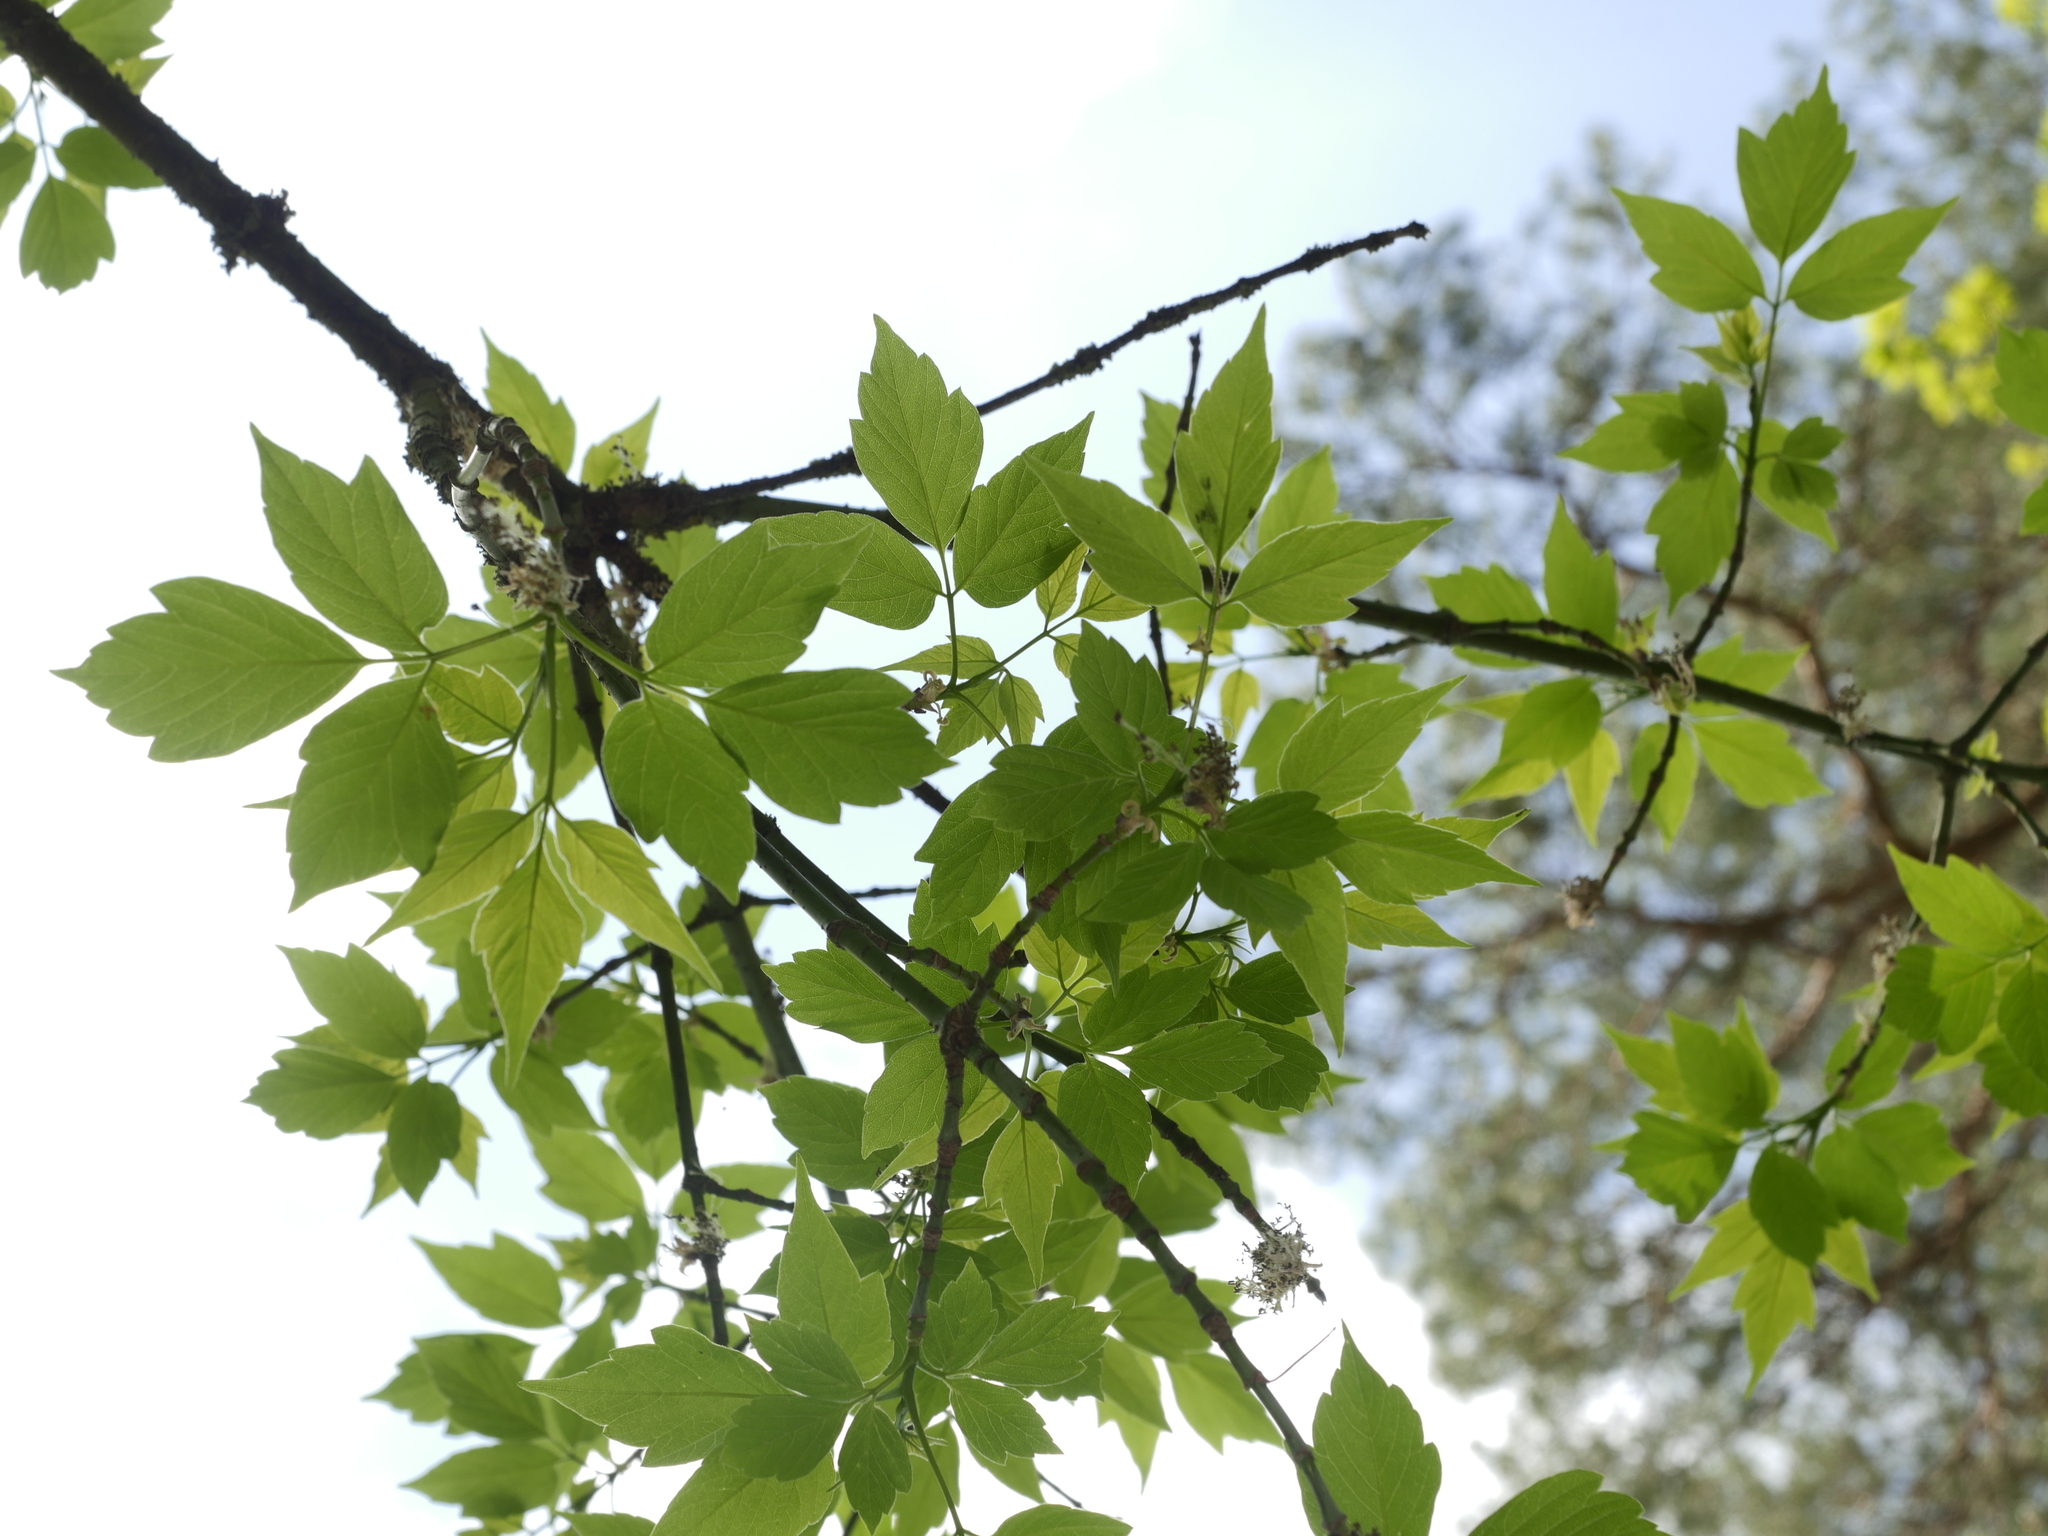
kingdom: Plantae
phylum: Tracheophyta
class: Magnoliopsida
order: Sapindales
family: Sapindaceae
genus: Acer
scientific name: Acer negundo
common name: Ashleaf maple
